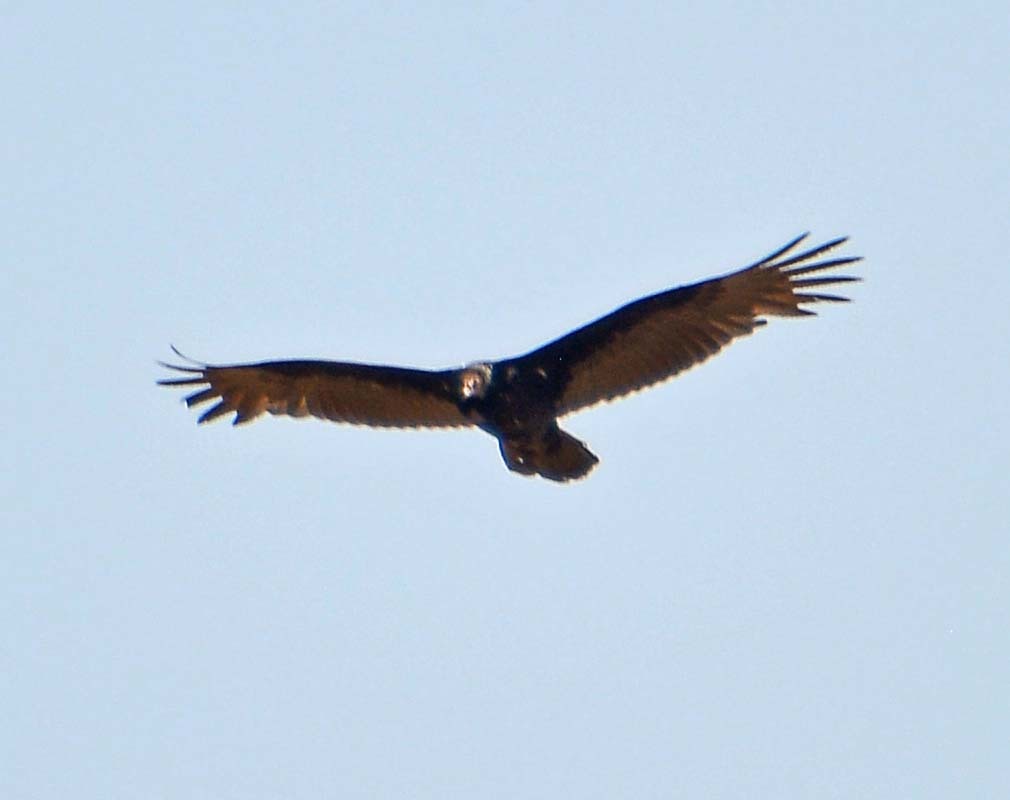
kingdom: Animalia
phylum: Chordata
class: Aves
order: Accipitriformes
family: Cathartidae
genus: Cathartes
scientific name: Cathartes aura
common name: Turkey vulture
